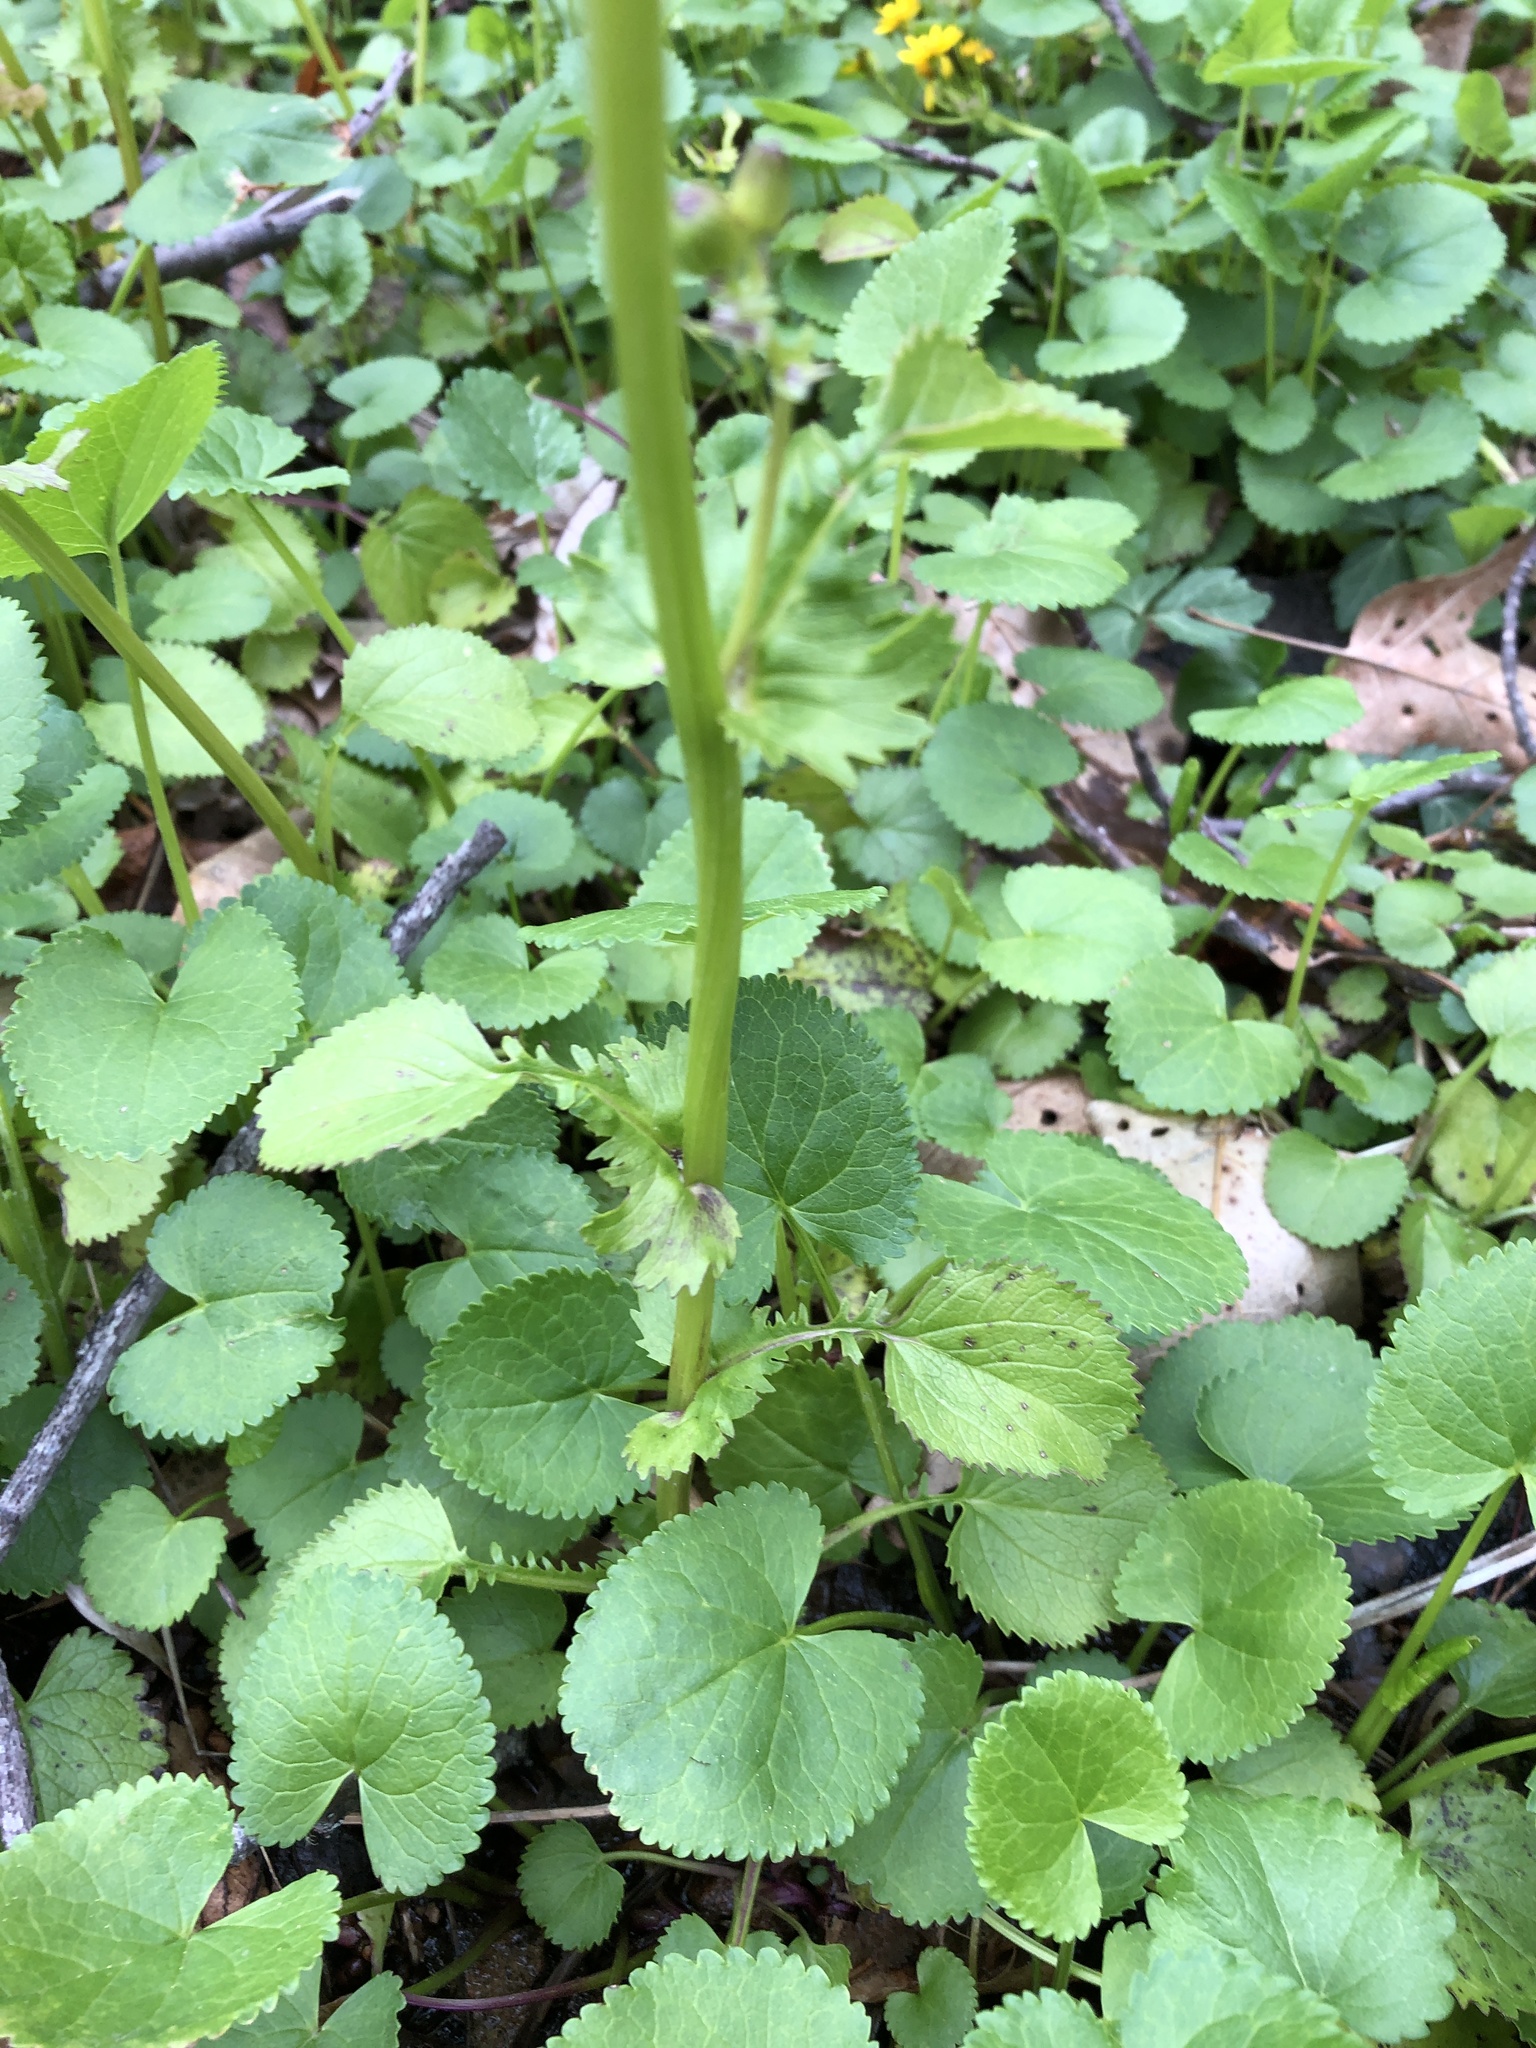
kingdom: Plantae
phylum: Tracheophyta
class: Magnoliopsida
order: Asterales
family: Asteraceae
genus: Packera
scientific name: Packera aurea
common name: Golden groundsel
